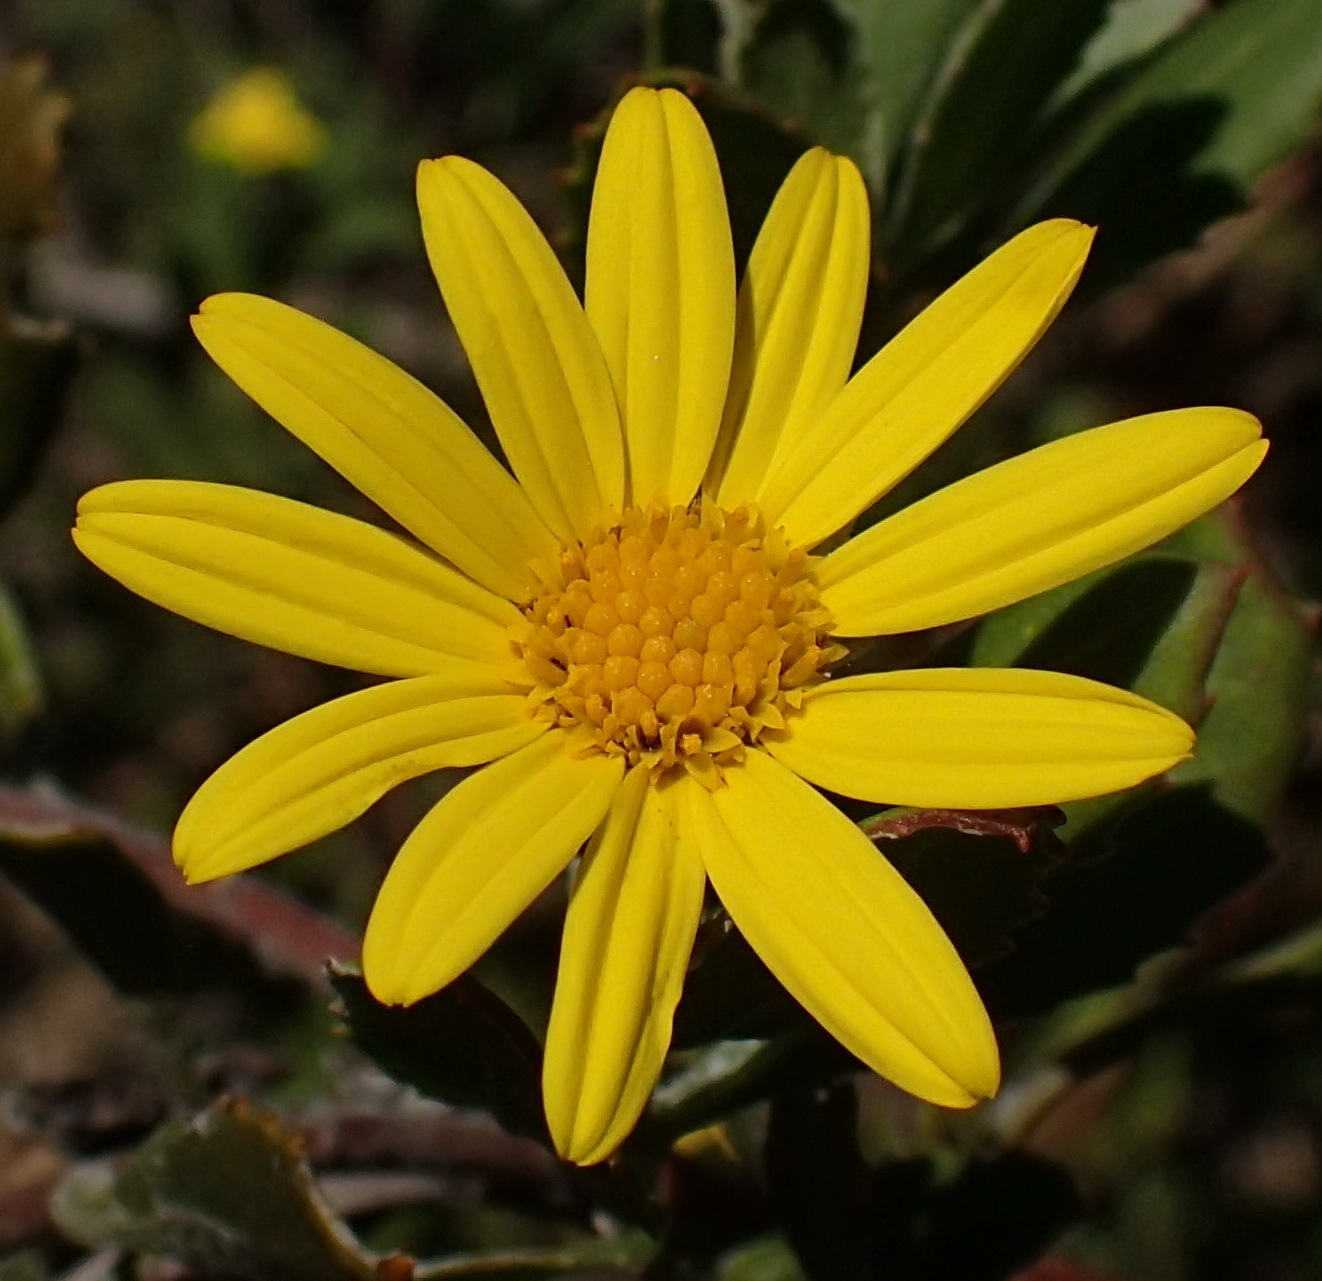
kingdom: Plantae
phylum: Tracheophyta
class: Magnoliopsida
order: Asterales
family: Asteraceae
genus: Osteospermum
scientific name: Osteospermum moniliferum
